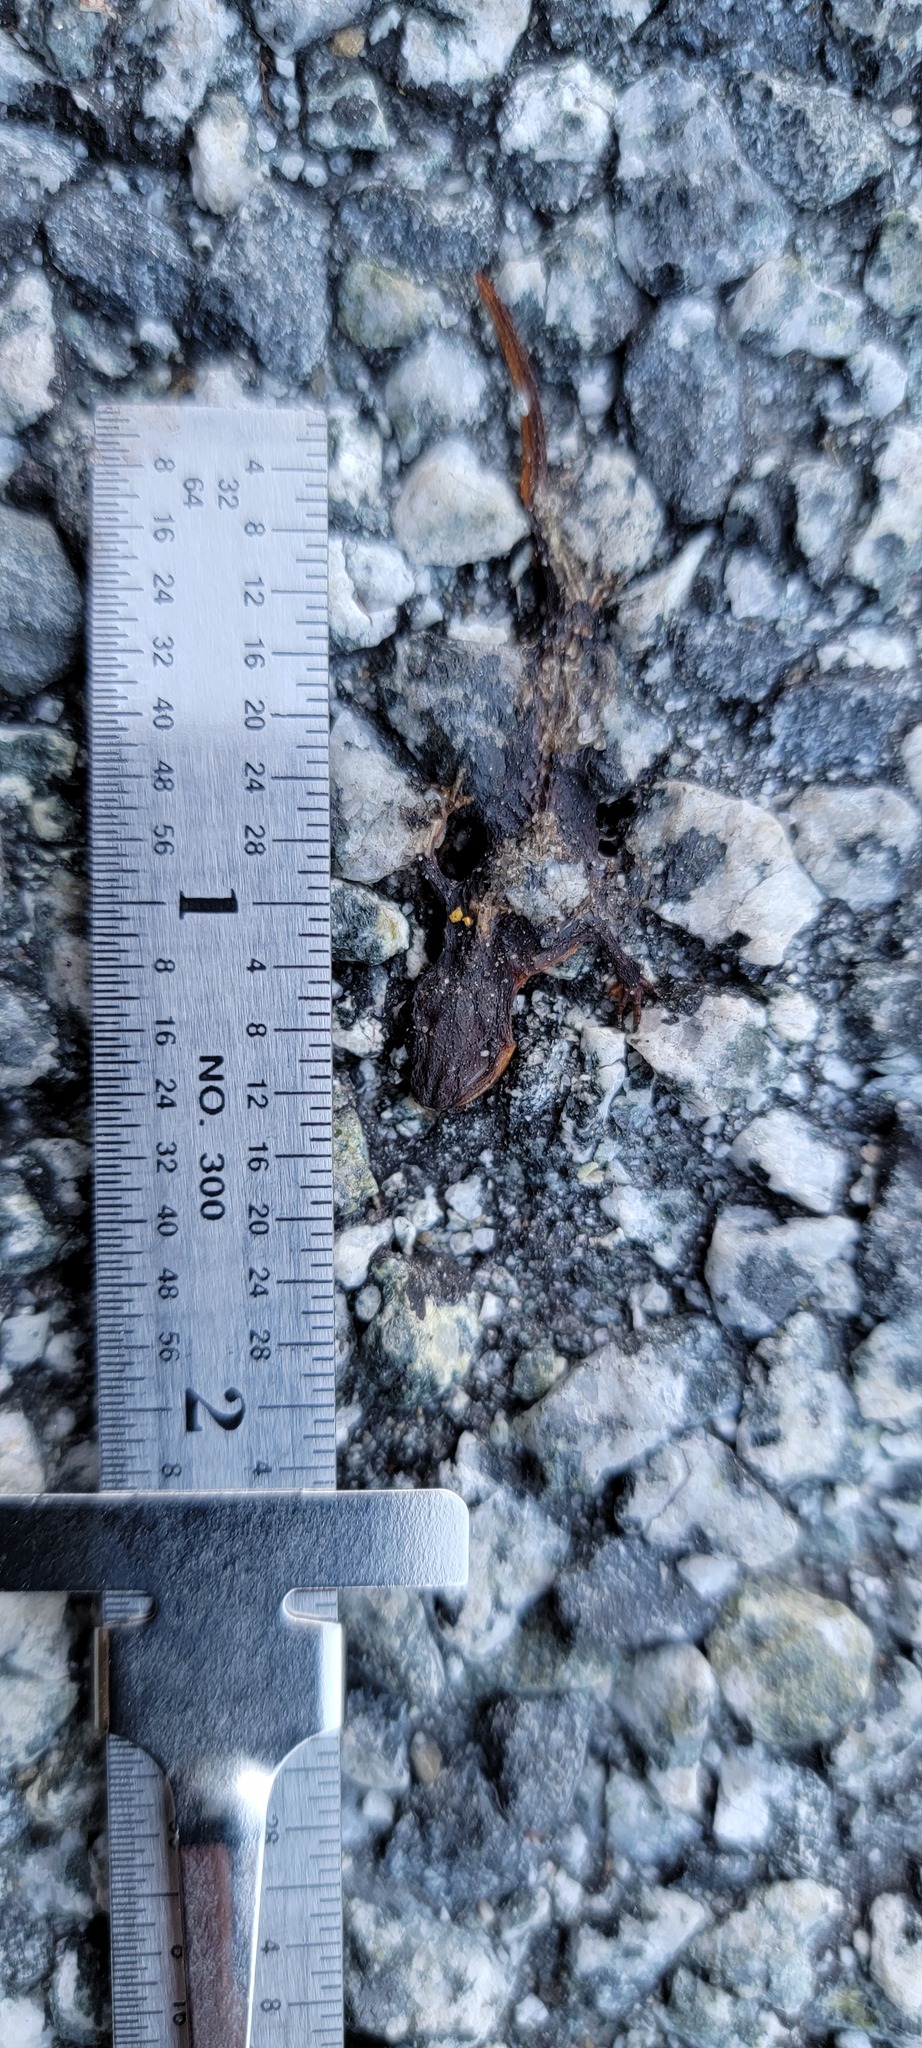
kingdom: Animalia
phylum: Chordata
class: Amphibia
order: Caudata
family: Salamandridae
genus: Taricha
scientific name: Taricha
